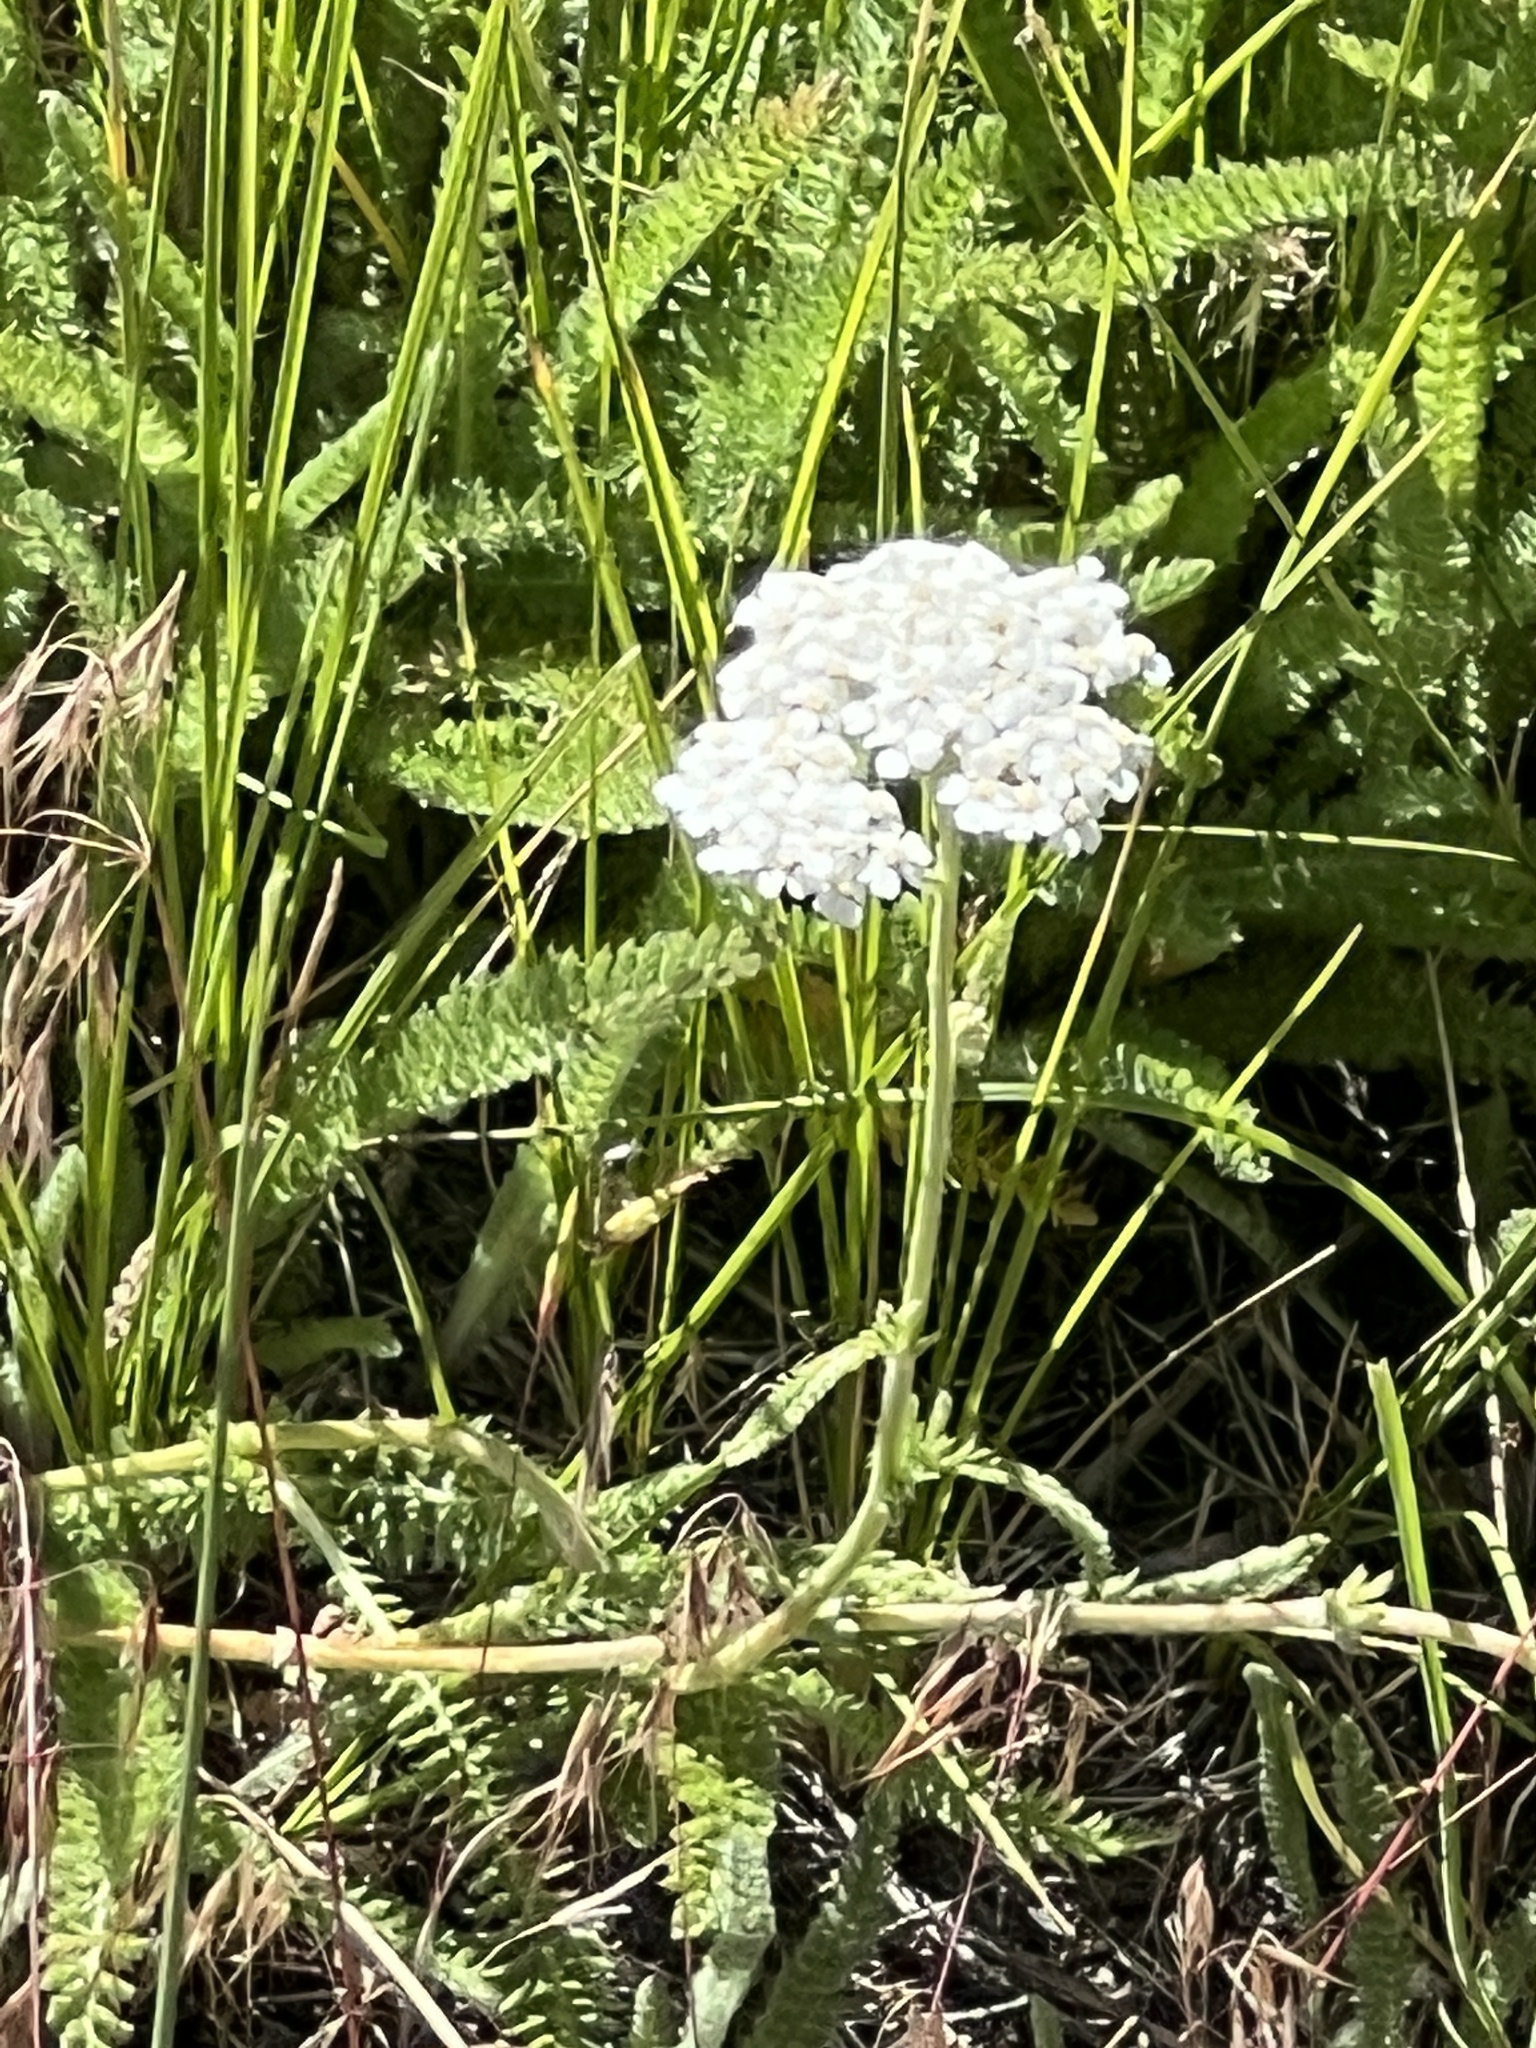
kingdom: Plantae
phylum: Tracheophyta
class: Magnoliopsida
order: Asterales
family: Asteraceae
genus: Achillea
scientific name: Achillea millefolium
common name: Yarrow
